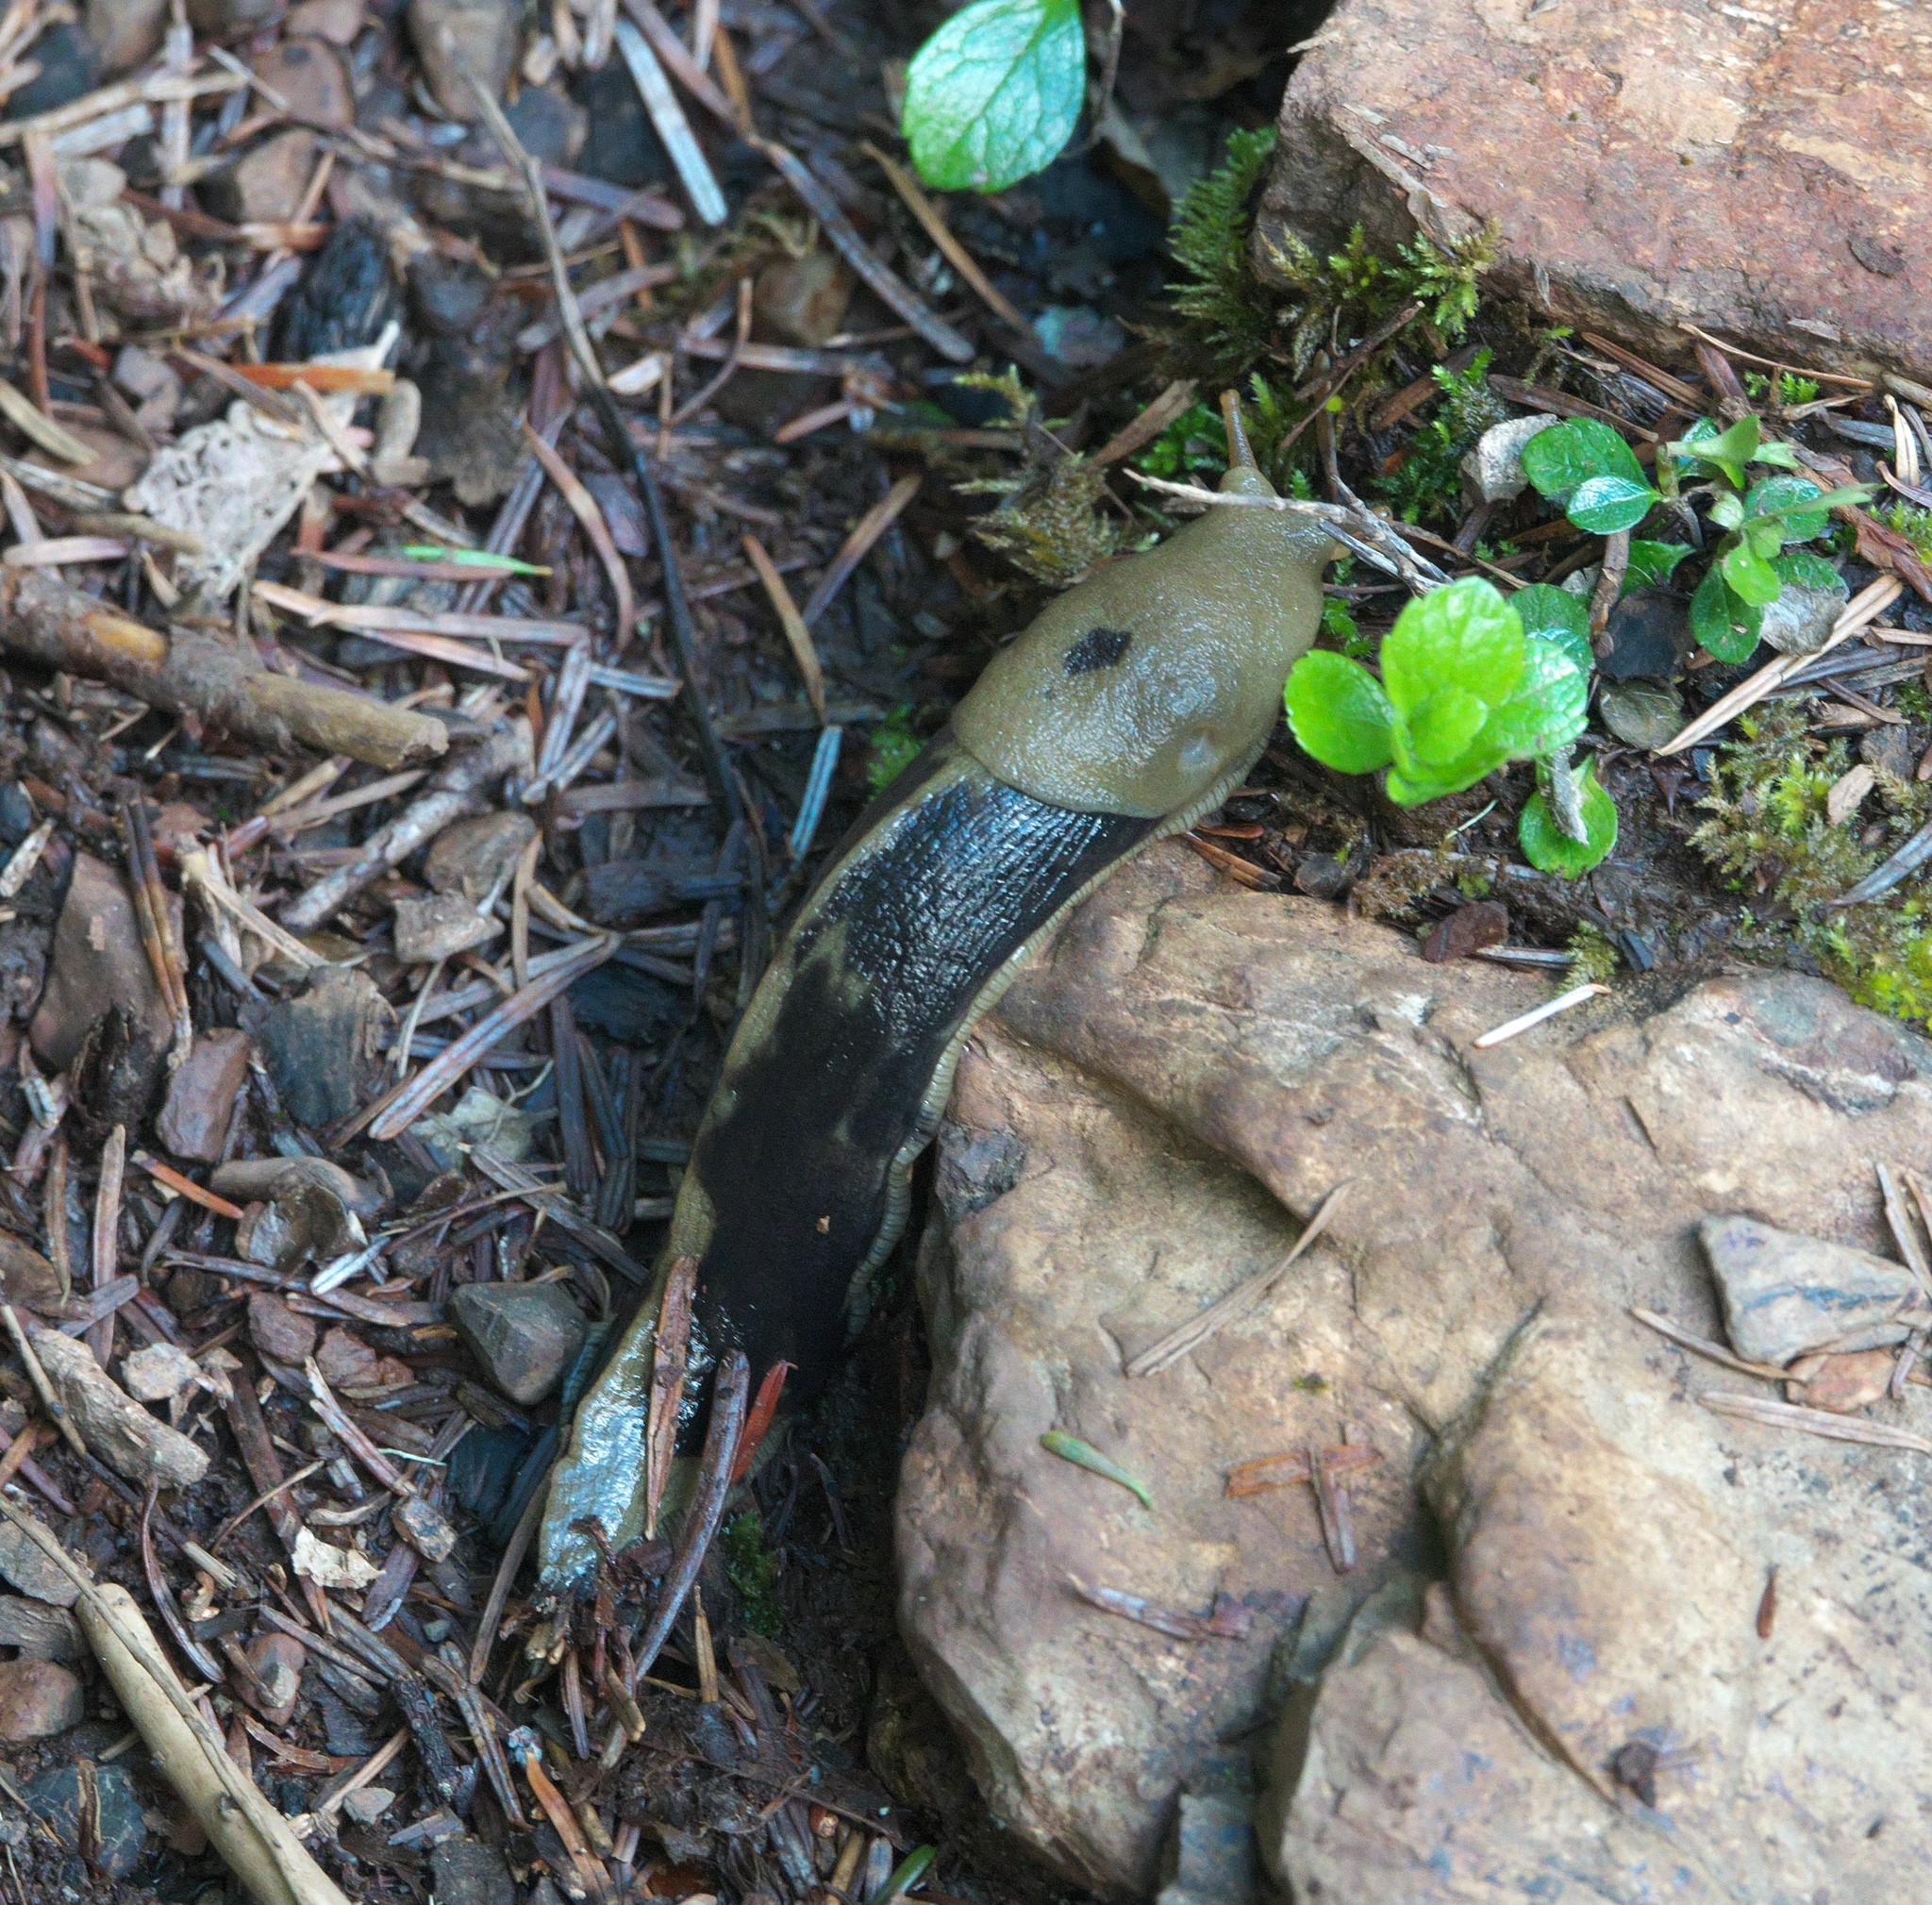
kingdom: Animalia
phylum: Mollusca
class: Gastropoda
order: Stylommatophora
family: Ariolimacidae
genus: Ariolimax
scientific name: Ariolimax columbianus
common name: Pacific banana slug
